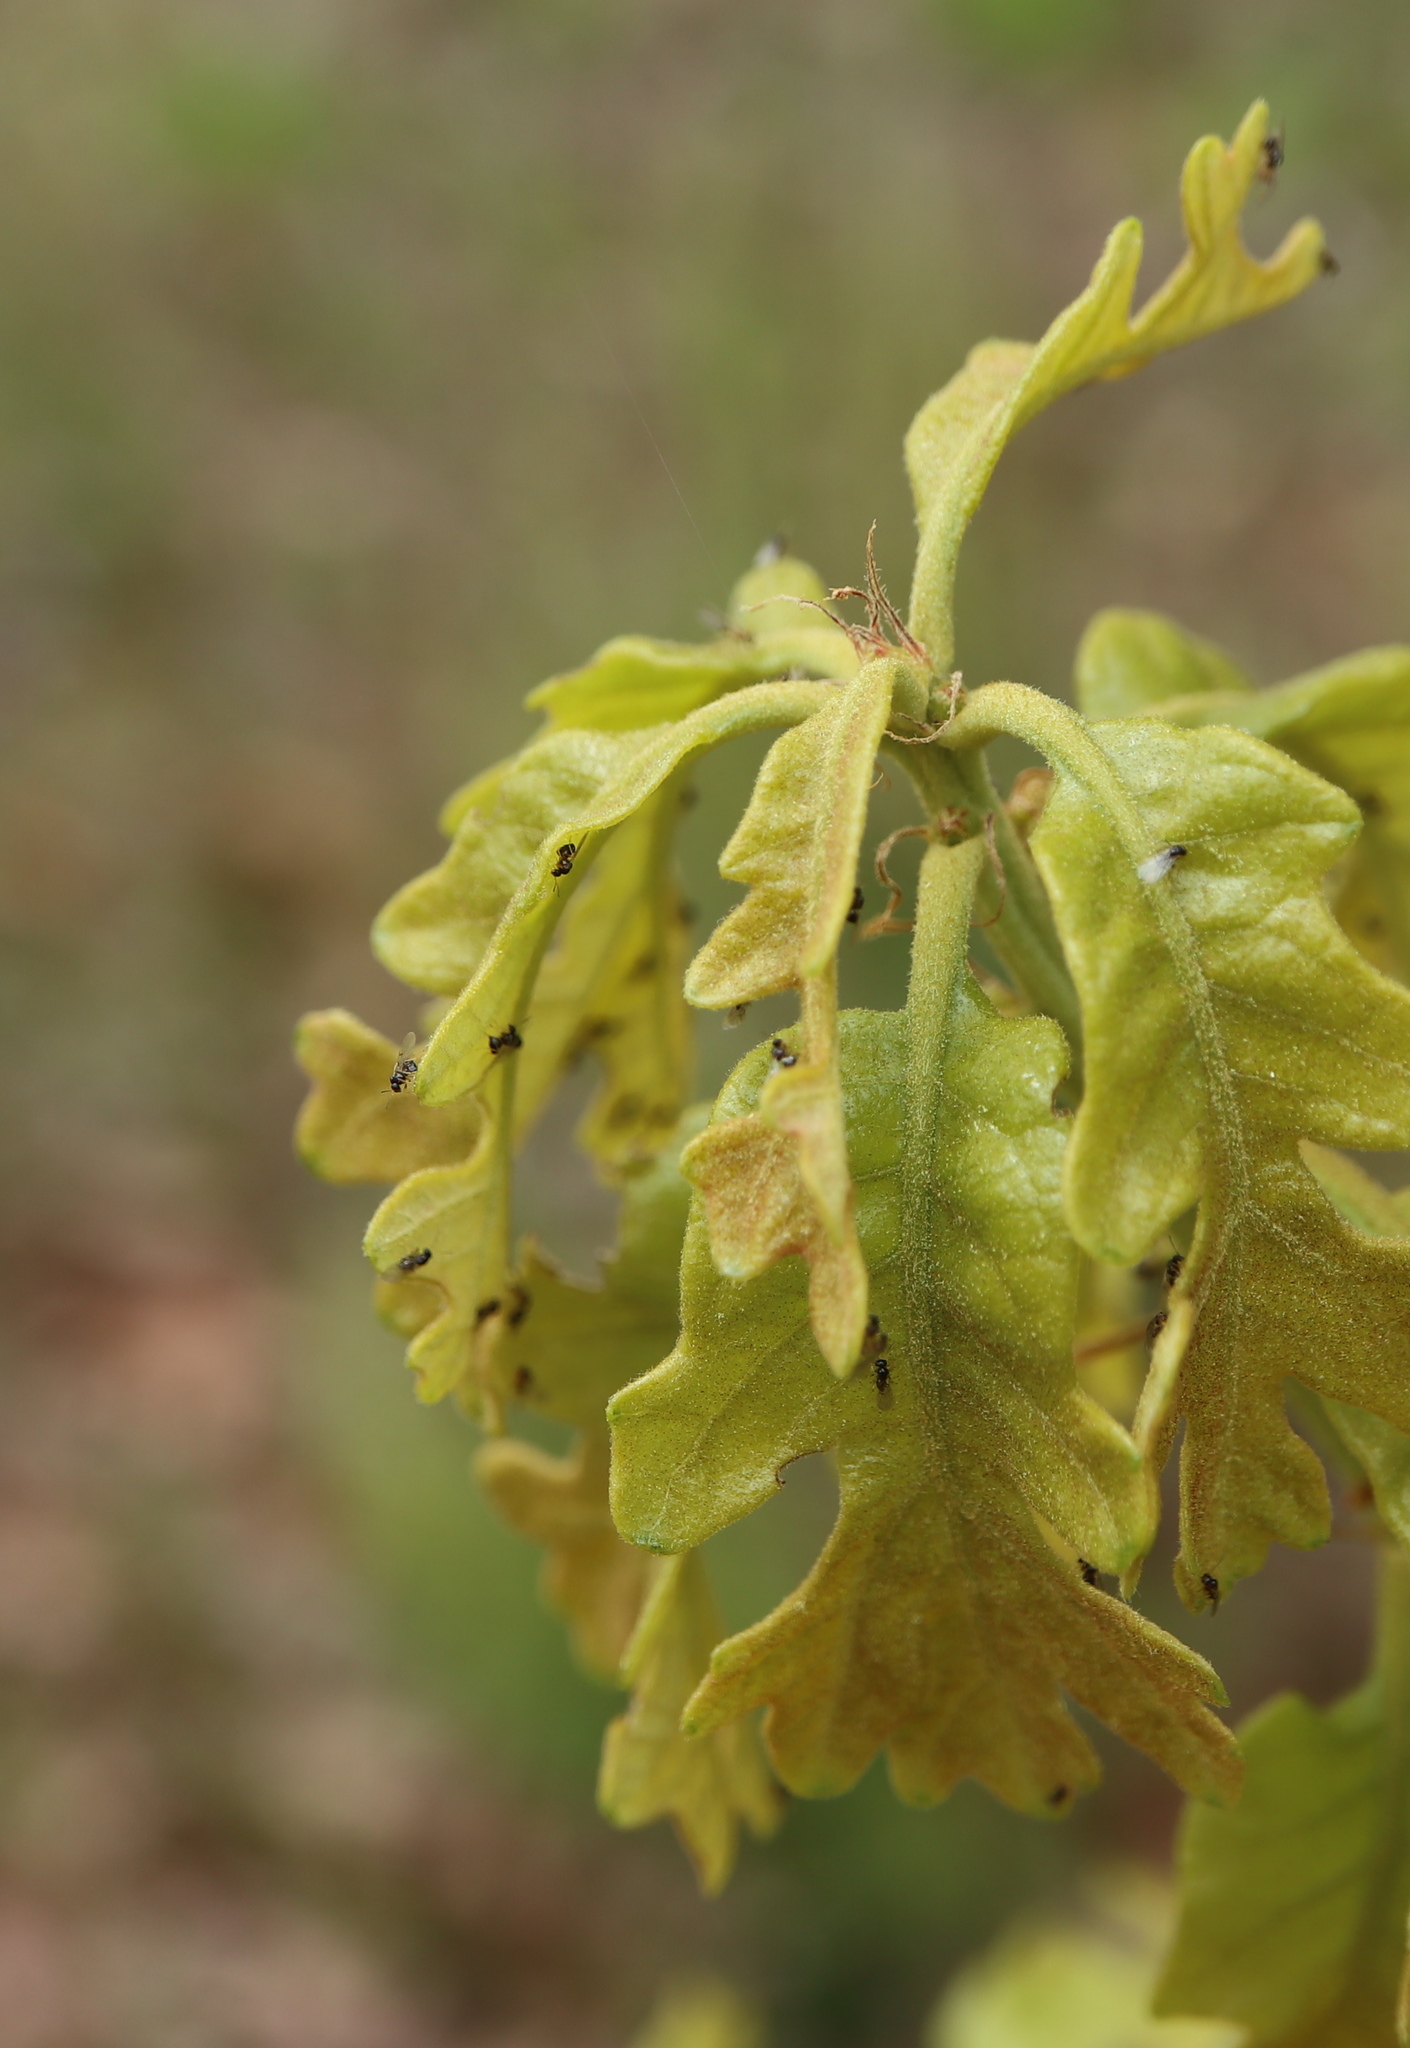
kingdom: Animalia
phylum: Arthropoda
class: Insecta
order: Hymenoptera
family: Cynipidae
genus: Neuroterus
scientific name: Neuroterus
